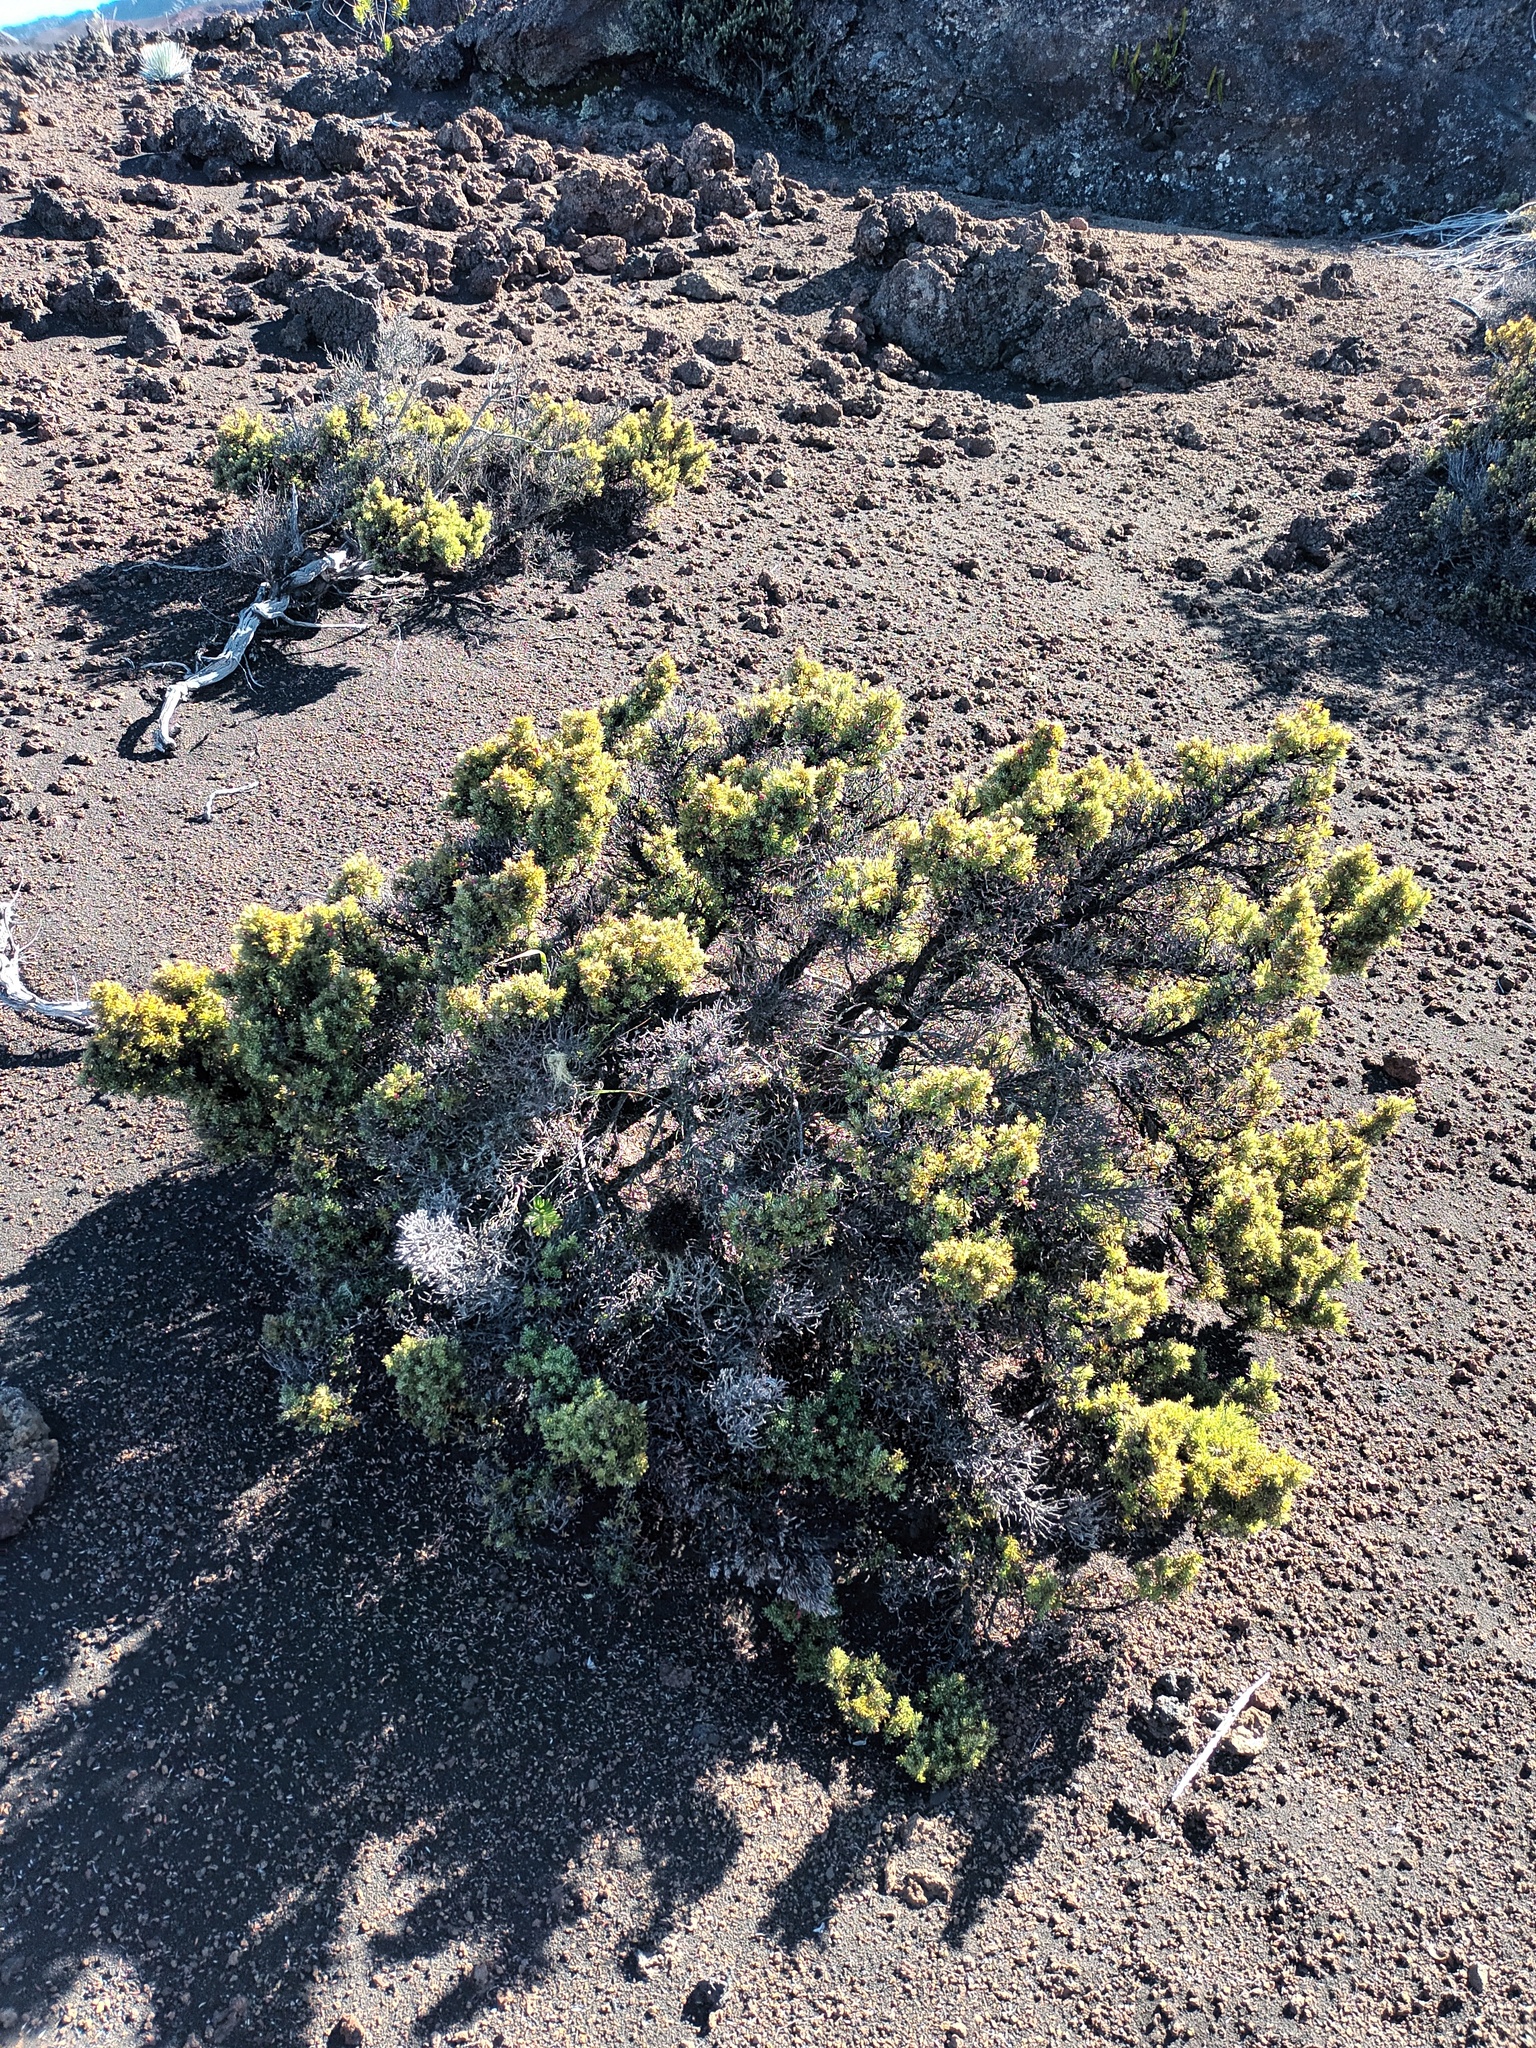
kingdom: Plantae
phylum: Tracheophyta
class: Magnoliopsida
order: Ericales
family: Ericaceae
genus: Leptecophylla
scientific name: Leptecophylla tameiameiae
